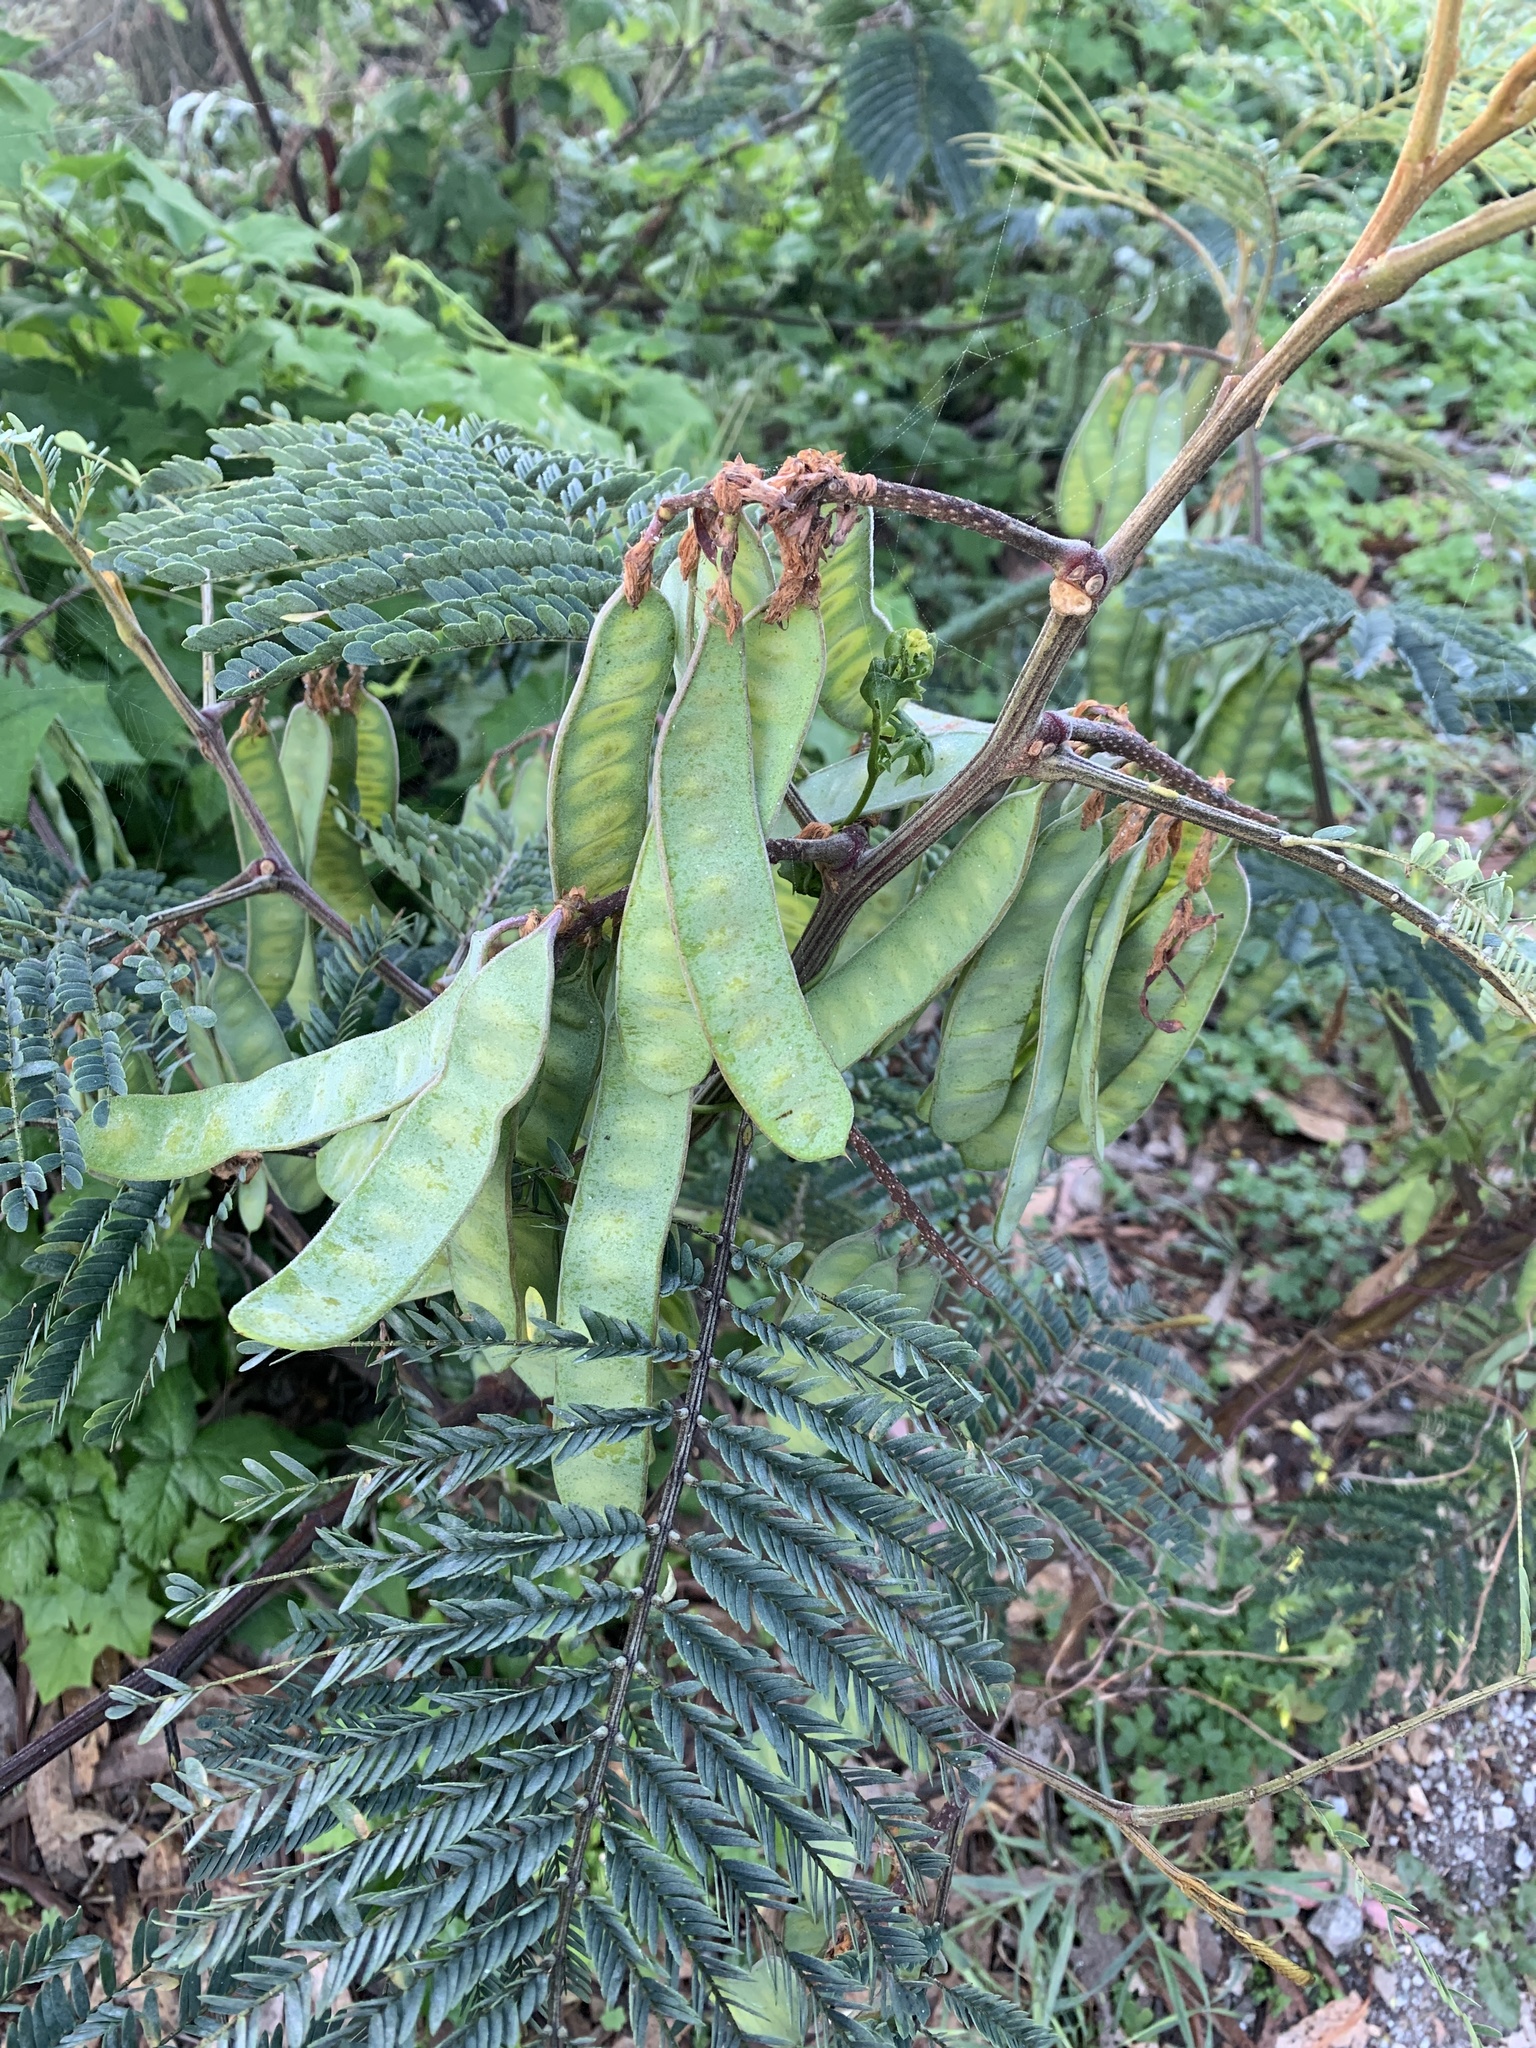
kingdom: Plantae
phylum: Tracheophyta
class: Magnoliopsida
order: Fabales
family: Fabaceae
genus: Paraserianthes
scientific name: Paraserianthes lophantha
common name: Plume albizia
